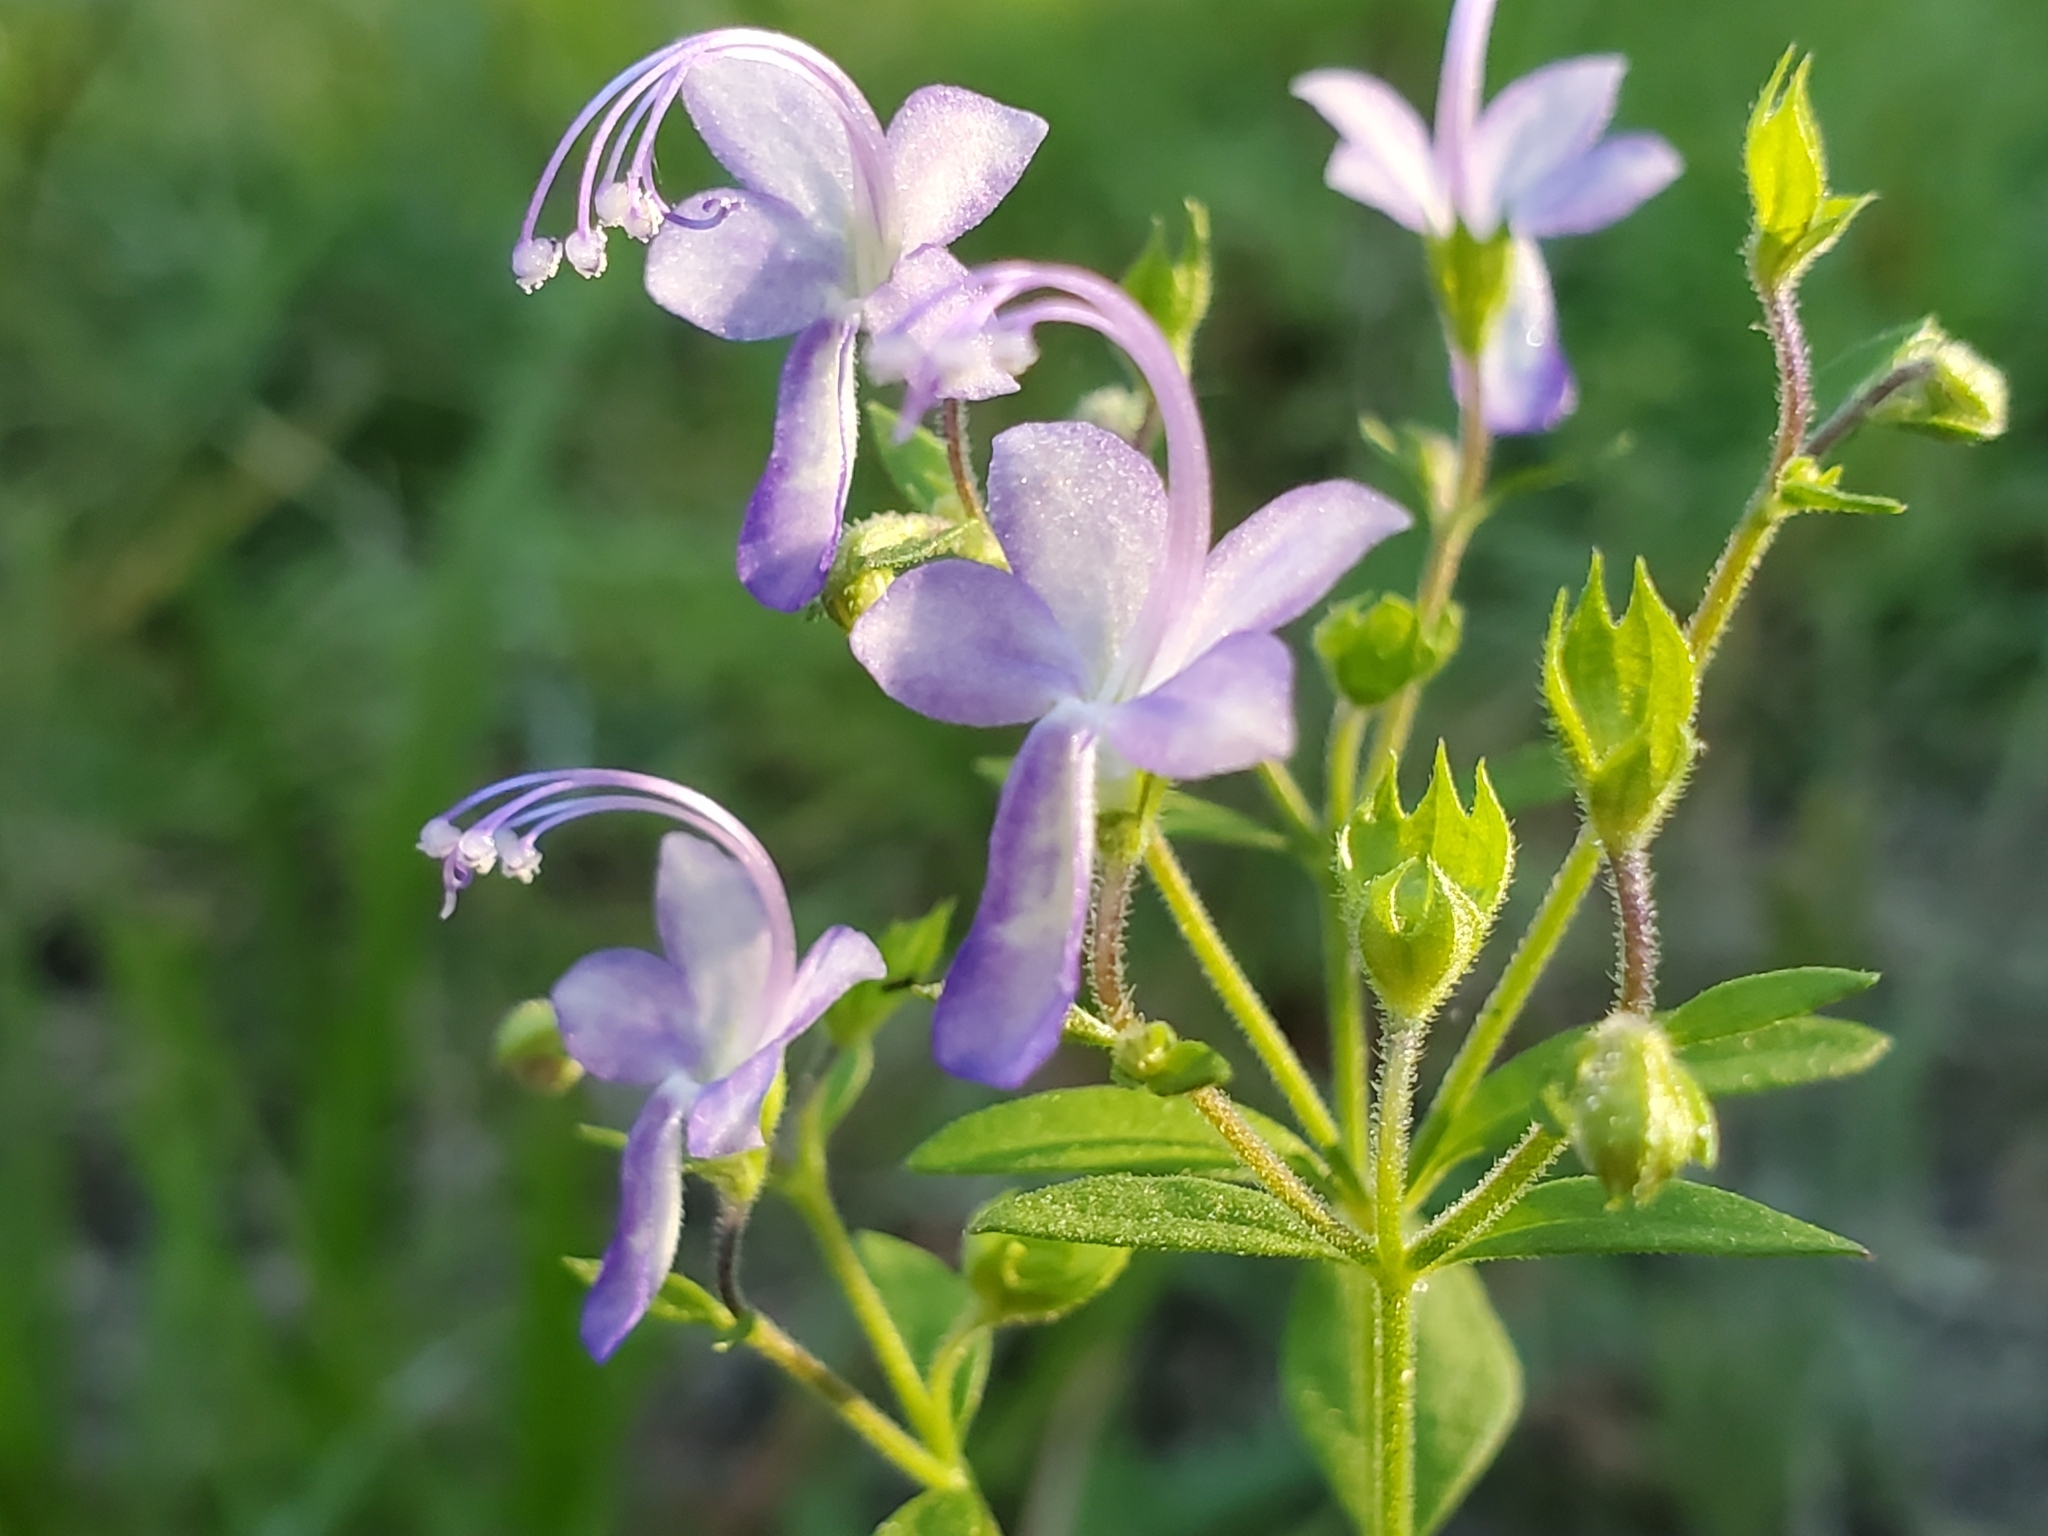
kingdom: Plantae
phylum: Tracheophyta
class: Magnoliopsida
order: Lamiales
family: Lamiaceae
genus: Trichostema
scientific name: Trichostema dichotomum
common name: Bastard pennyroyal
